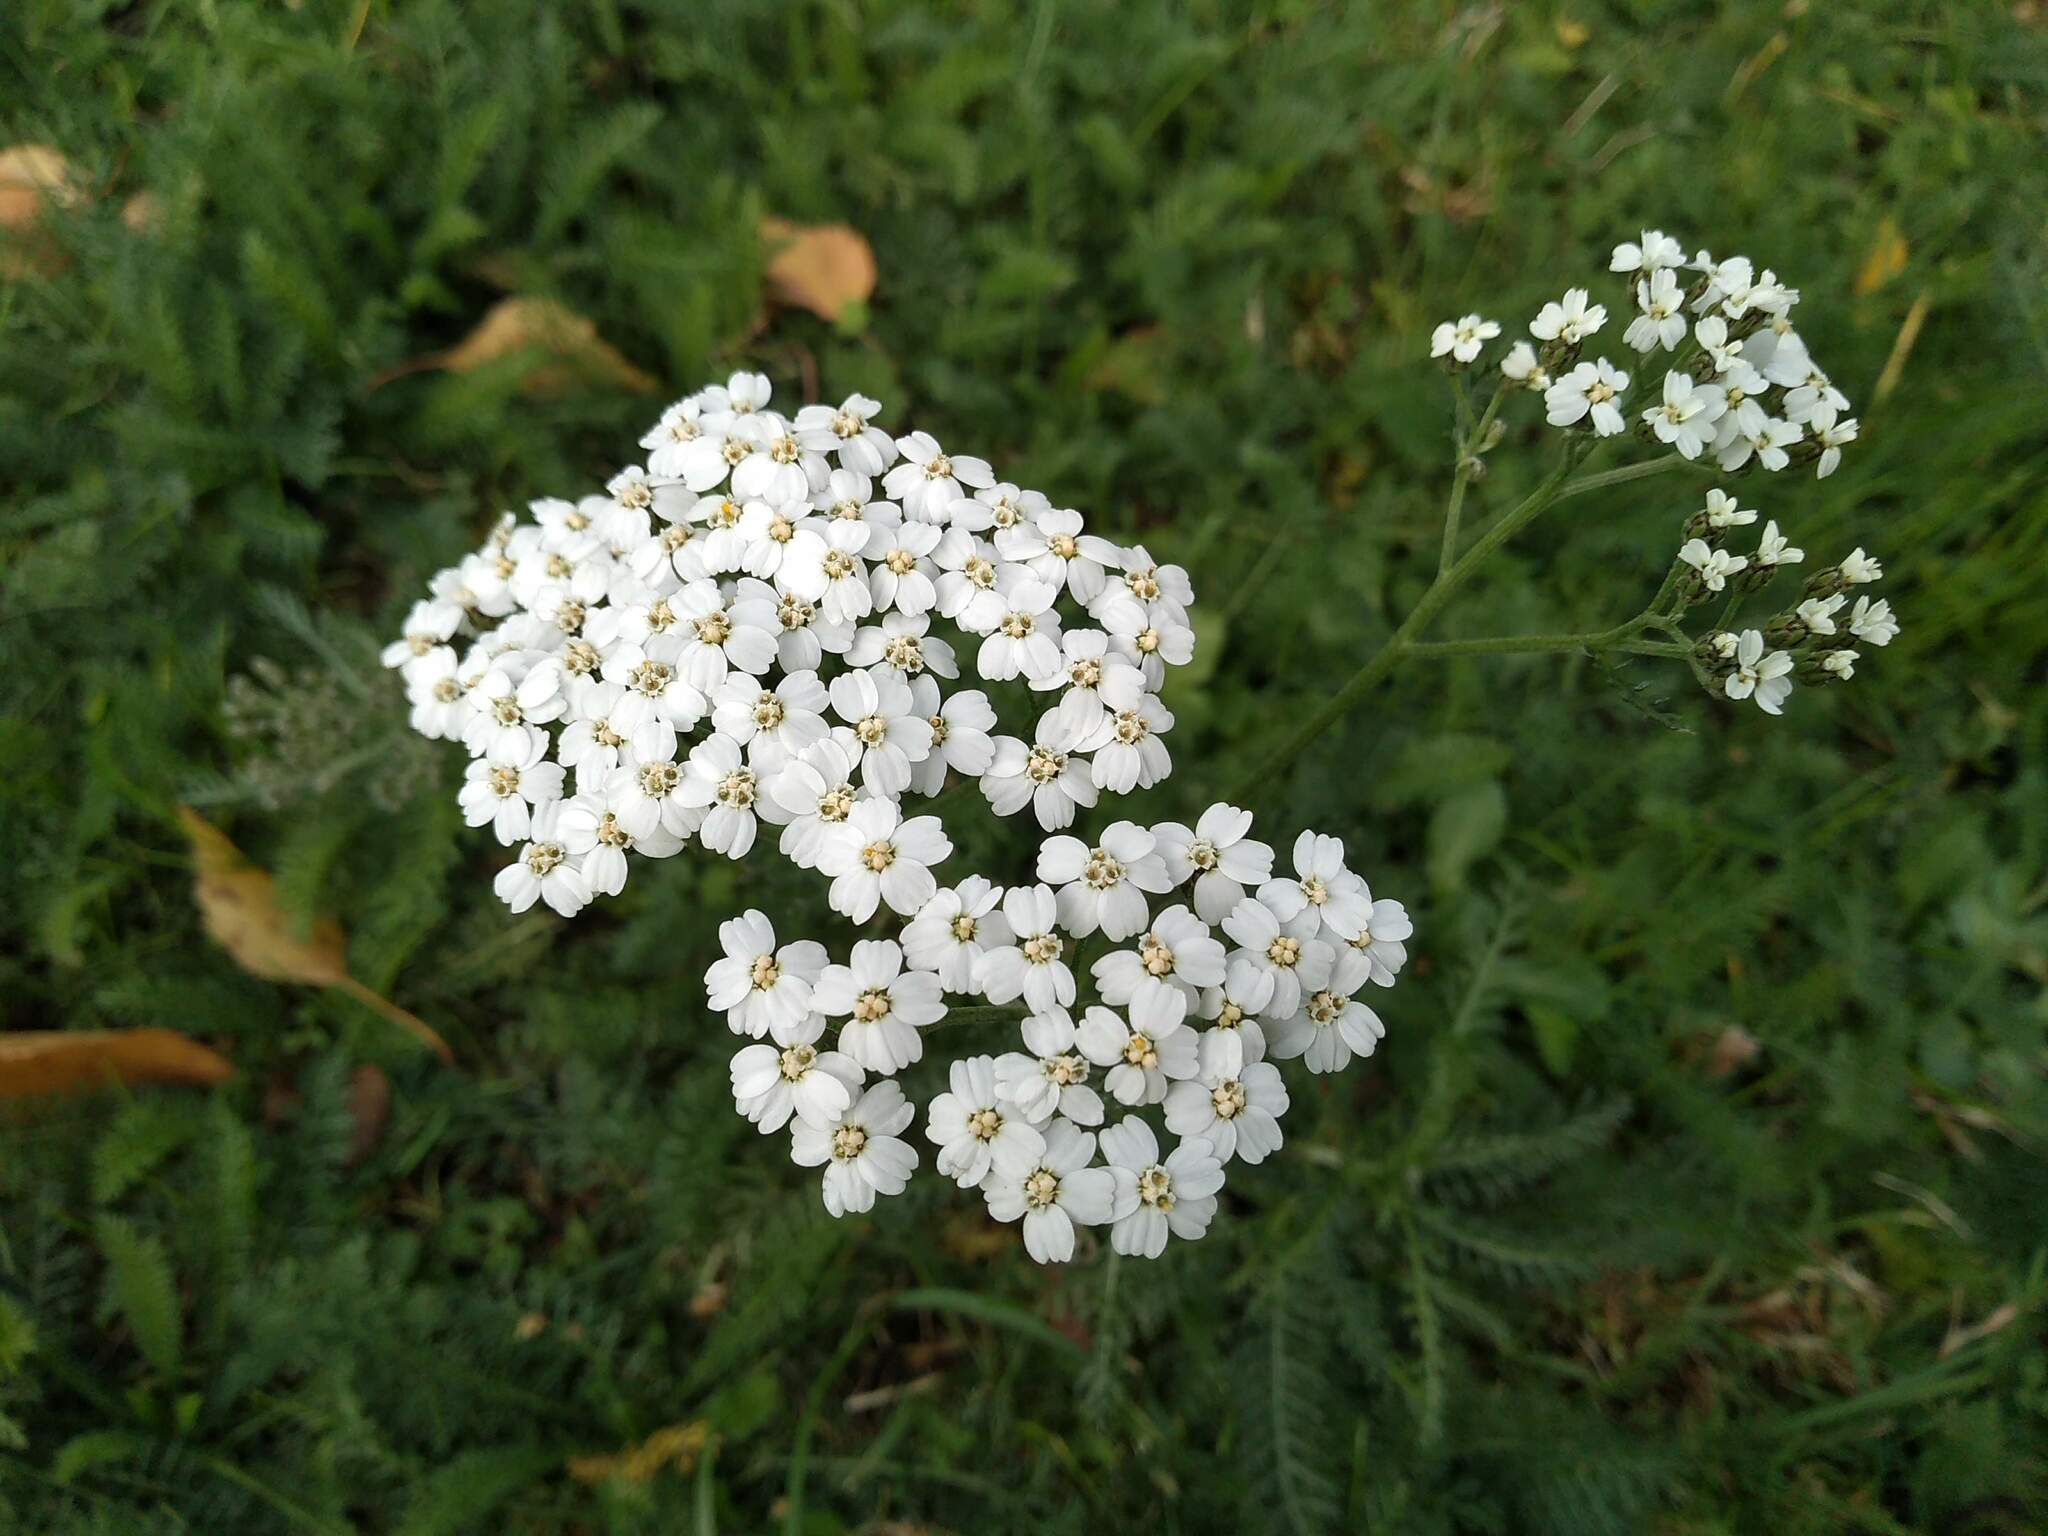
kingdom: Plantae
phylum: Tracheophyta
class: Magnoliopsida
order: Asterales
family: Asteraceae
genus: Achillea
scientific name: Achillea millefolium
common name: Yarrow
